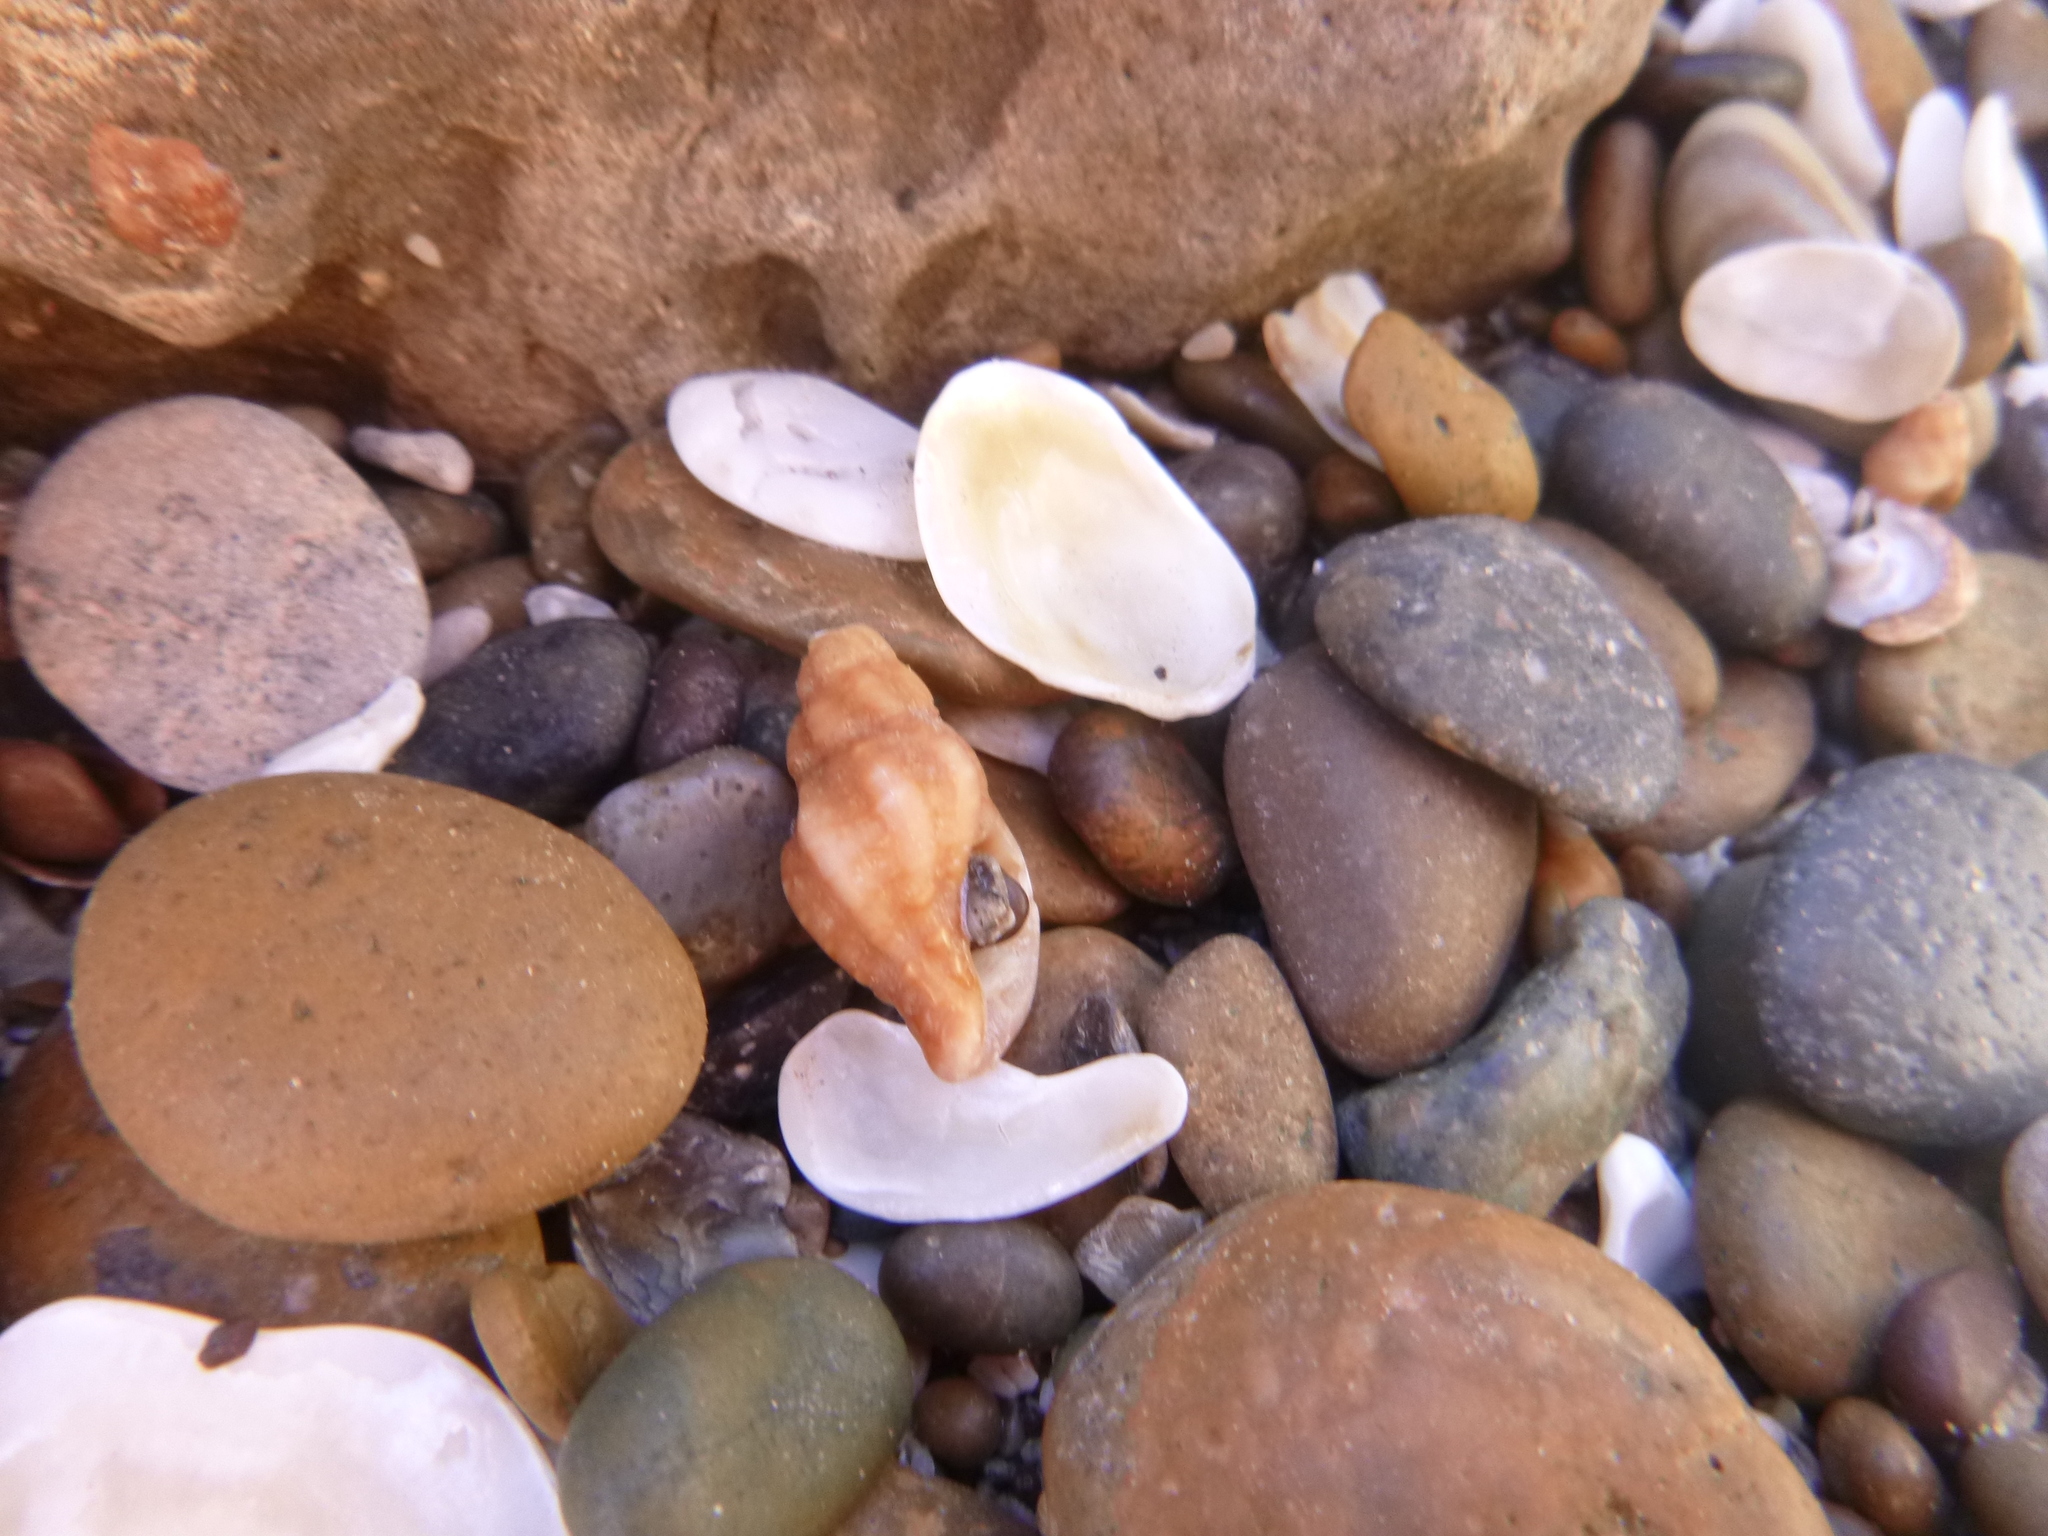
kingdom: Animalia
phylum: Mollusca
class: Gastropoda
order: Neogastropoda
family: Muricidae
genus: Muricopsis
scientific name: Muricopsis necocheana
